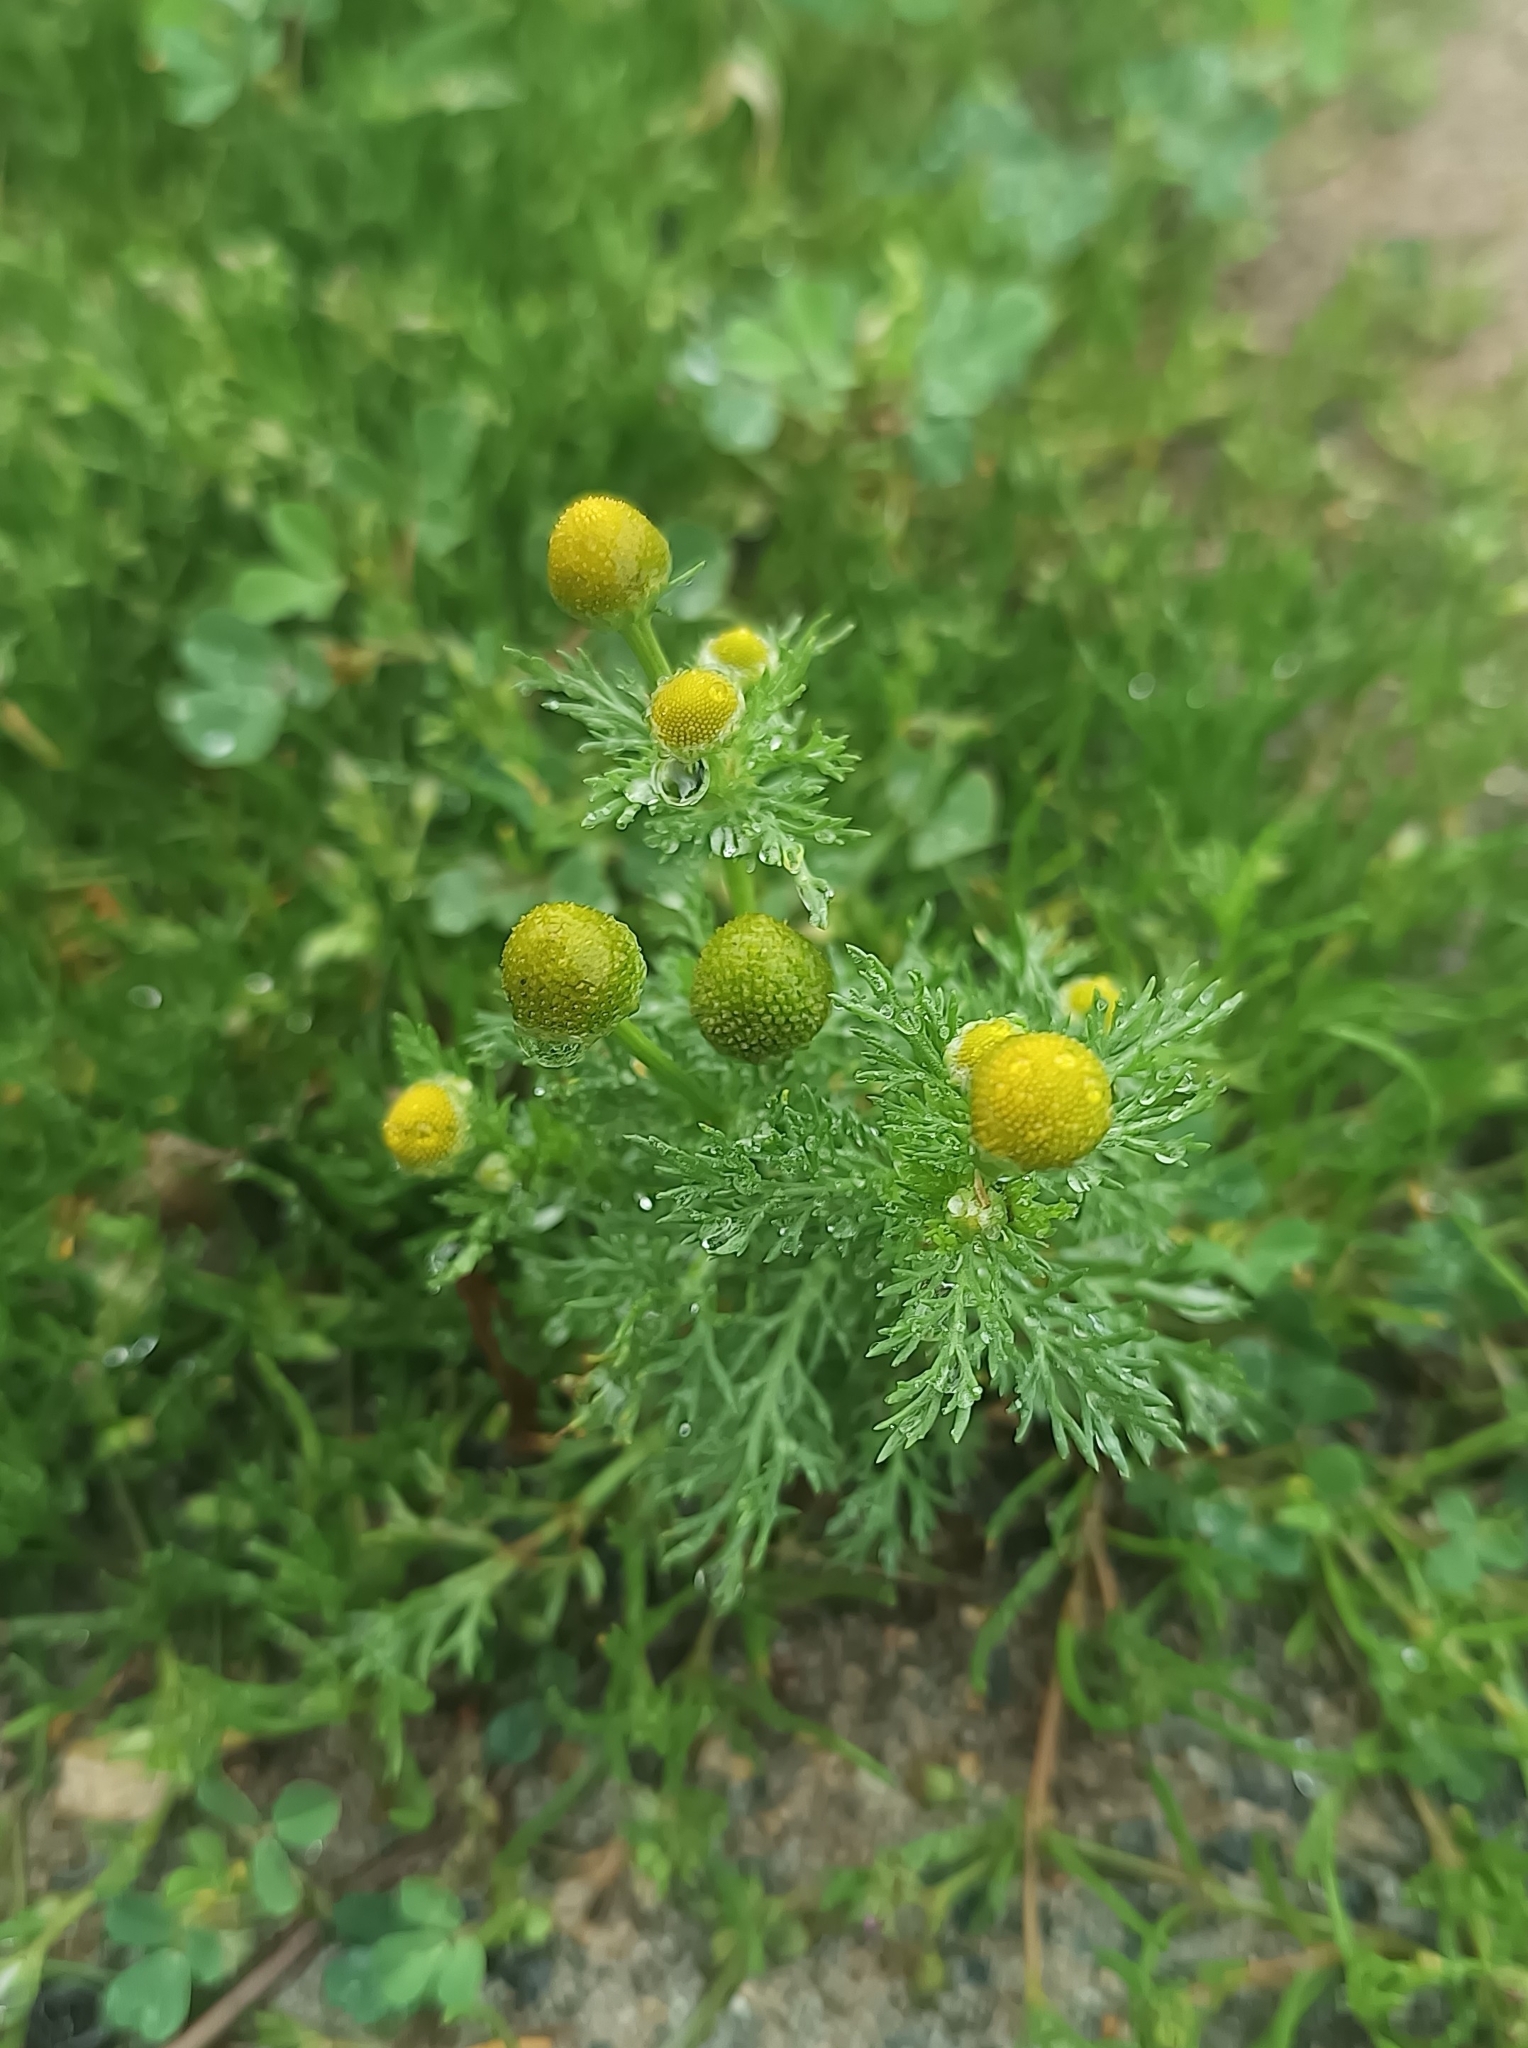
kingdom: Plantae
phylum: Tracheophyta
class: Magnoliopsida
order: Asterales
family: Asteraceae
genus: Matricaria
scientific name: Matricaria discoidea
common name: Disc mayweed
